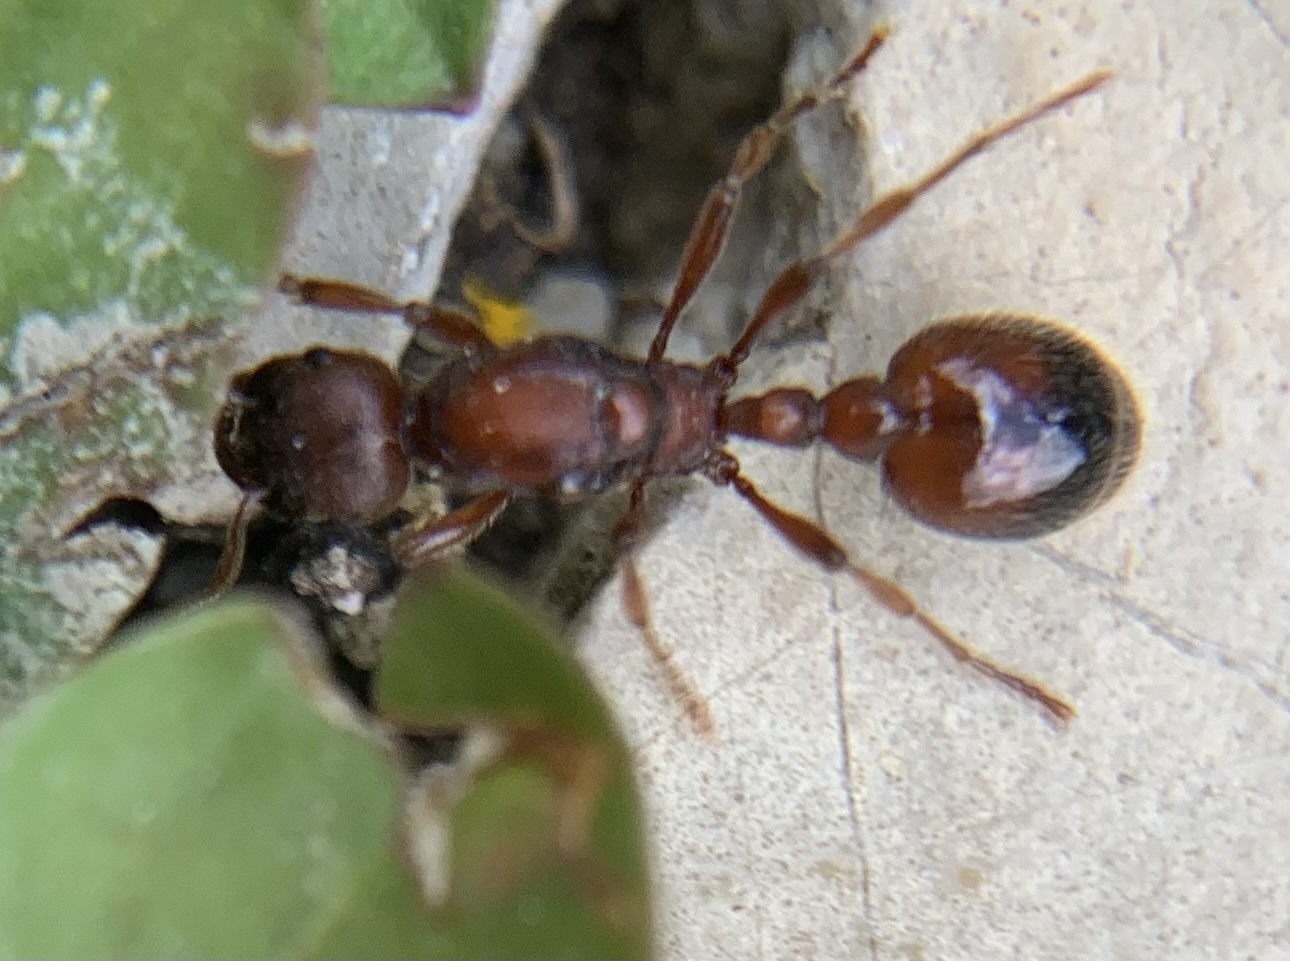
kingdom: Animalia
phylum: Arthropoda
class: Insecta
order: Hymenoptera
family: Formicidae
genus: Manica
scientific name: Manica rubida
